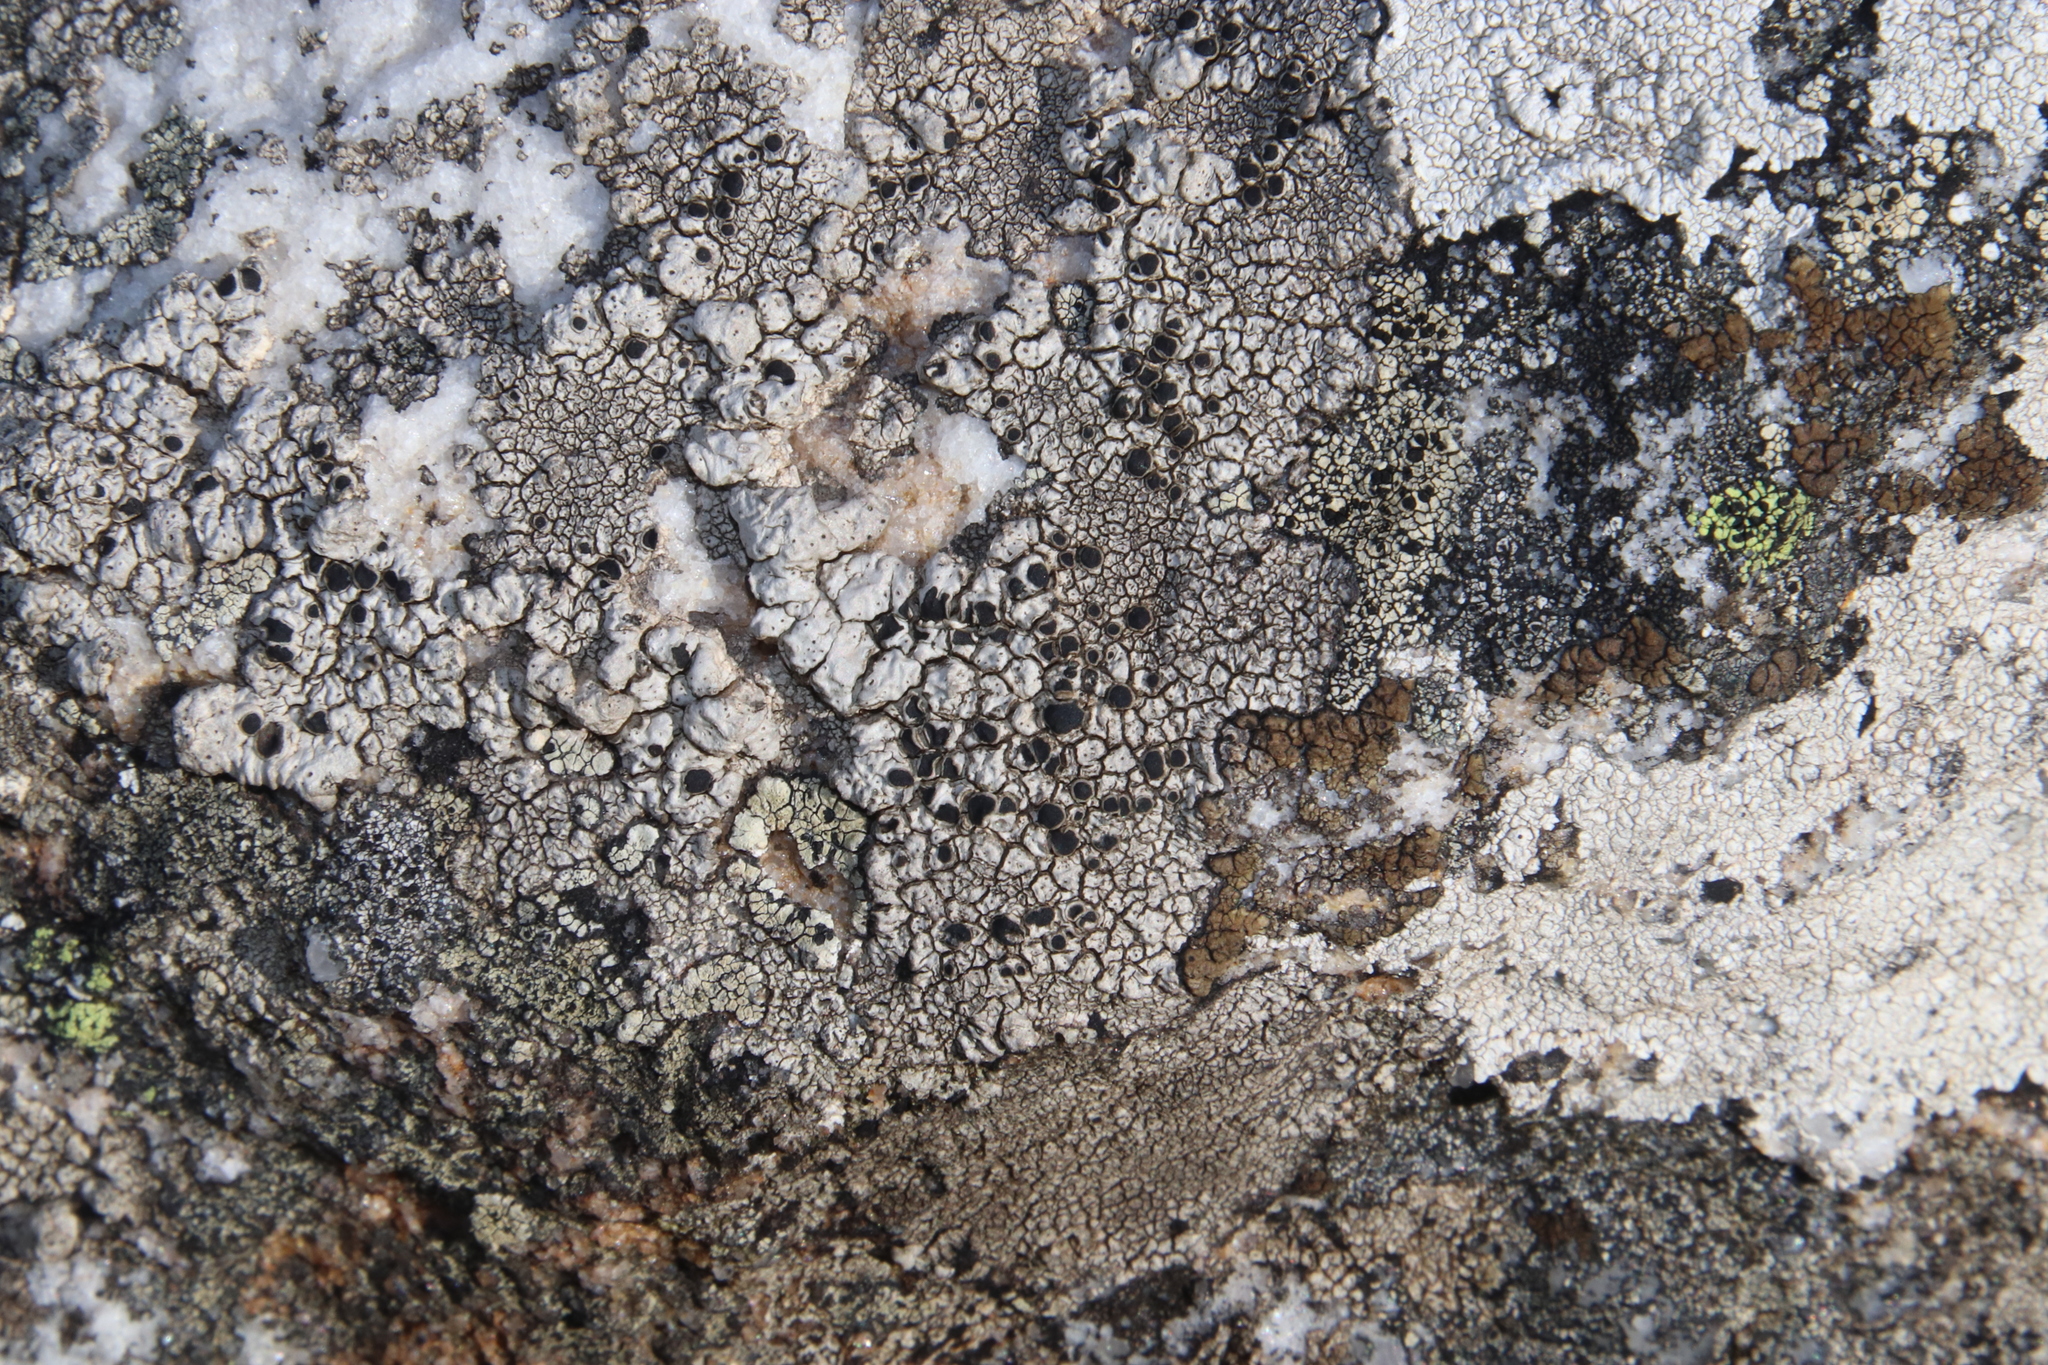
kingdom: Fungi
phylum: Ascomycota
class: Lecanoromycetes
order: Lecanorales
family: Tephromelataceae
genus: Tephromela
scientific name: Tephromela atra
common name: Black shields
